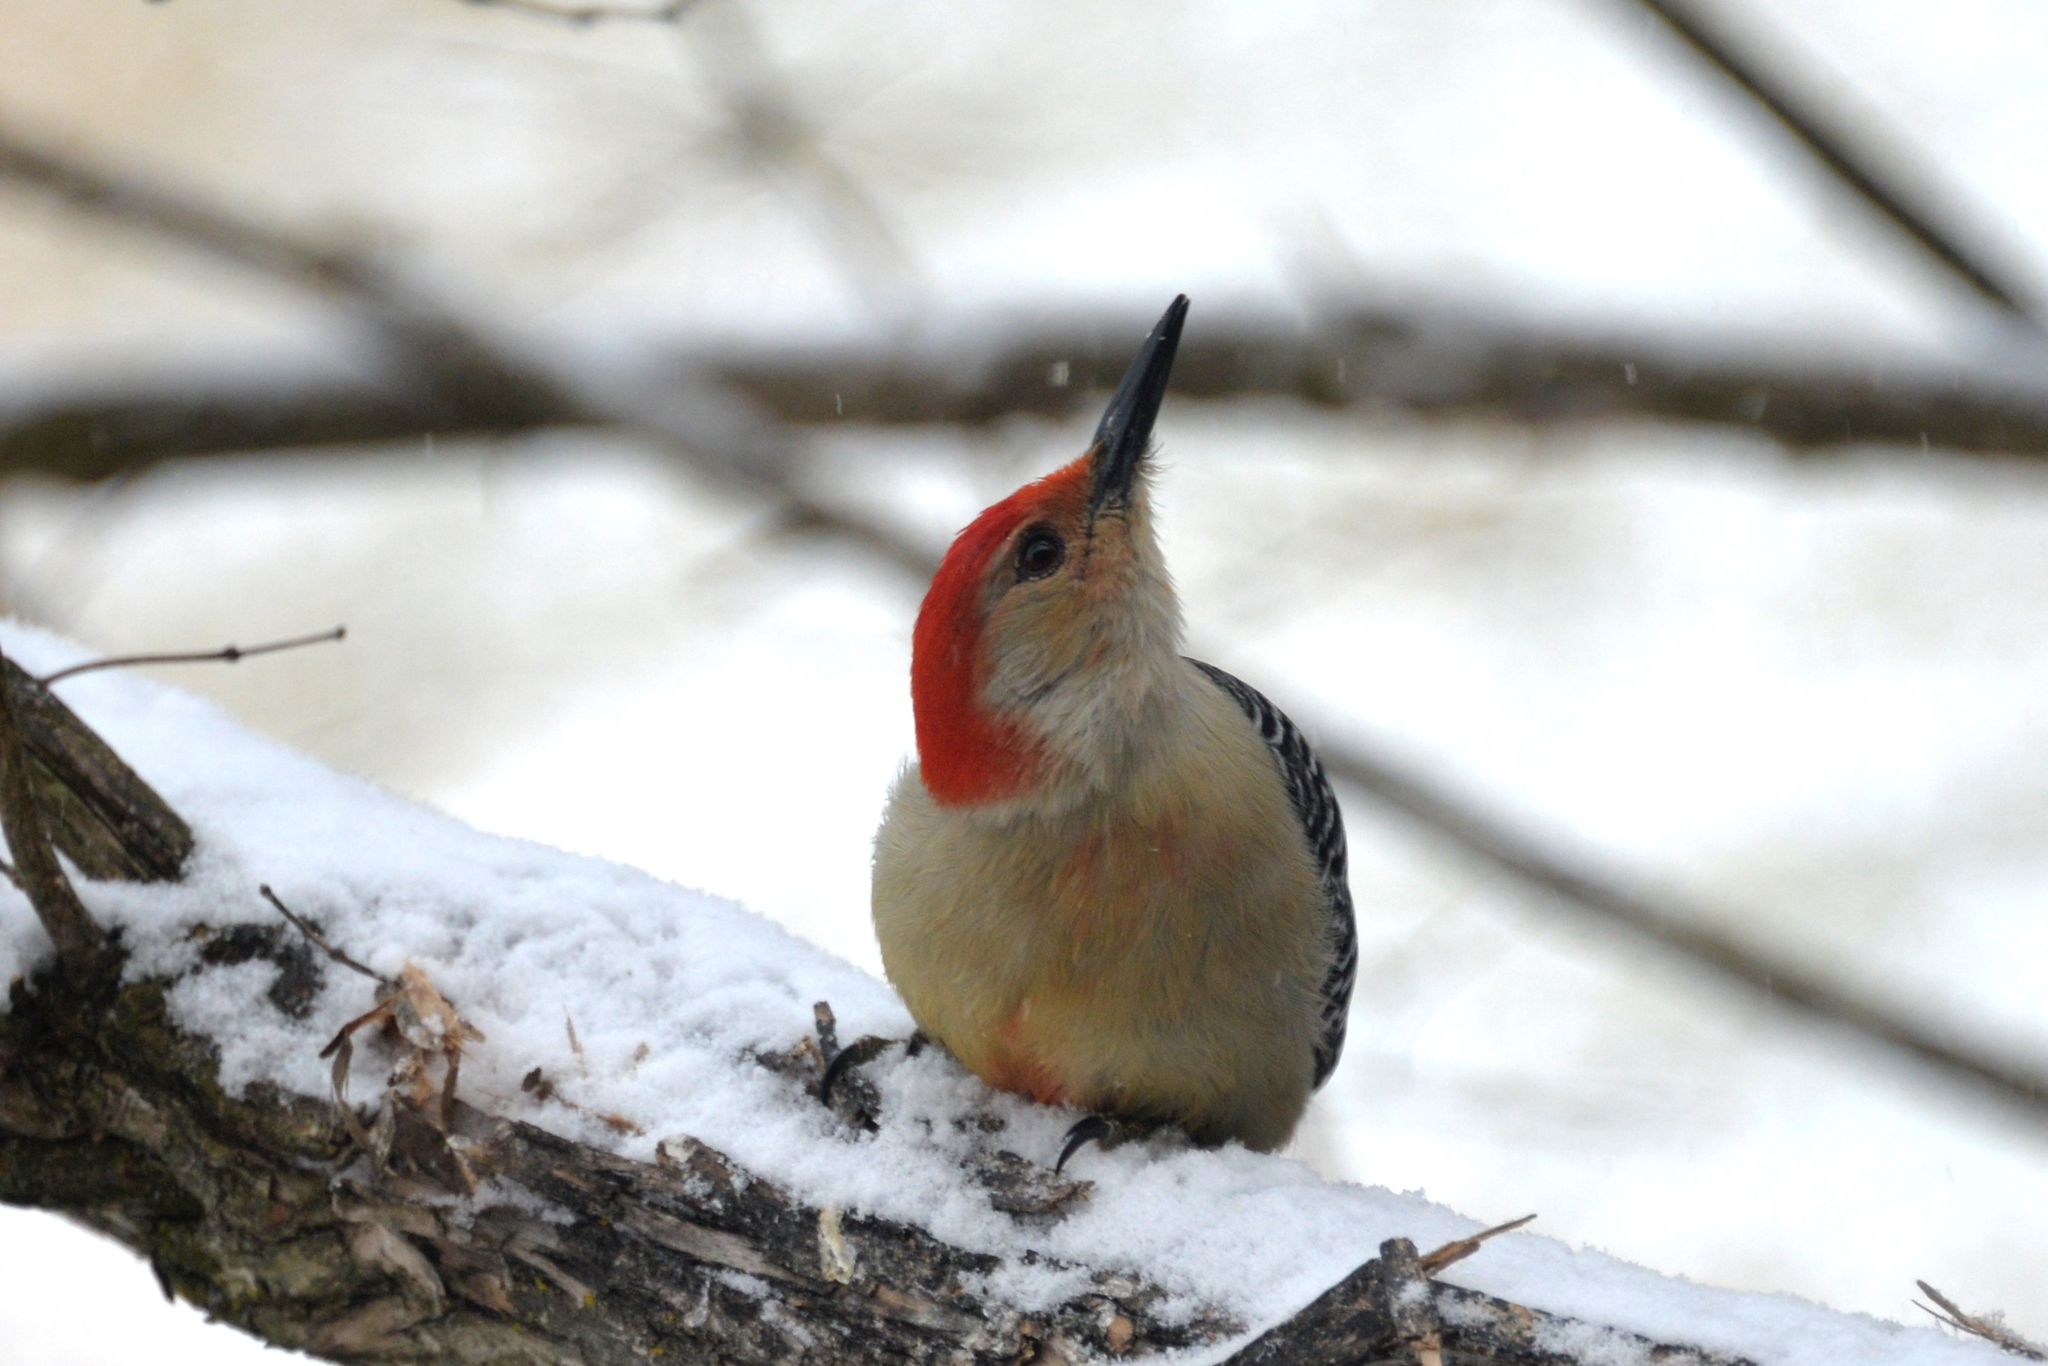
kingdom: Animalia
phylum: Chordata
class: Aves
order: Piciformes
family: Picidae
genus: Melanerpes
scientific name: Melanerpes carolinus
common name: Red-bellied woodpecker
